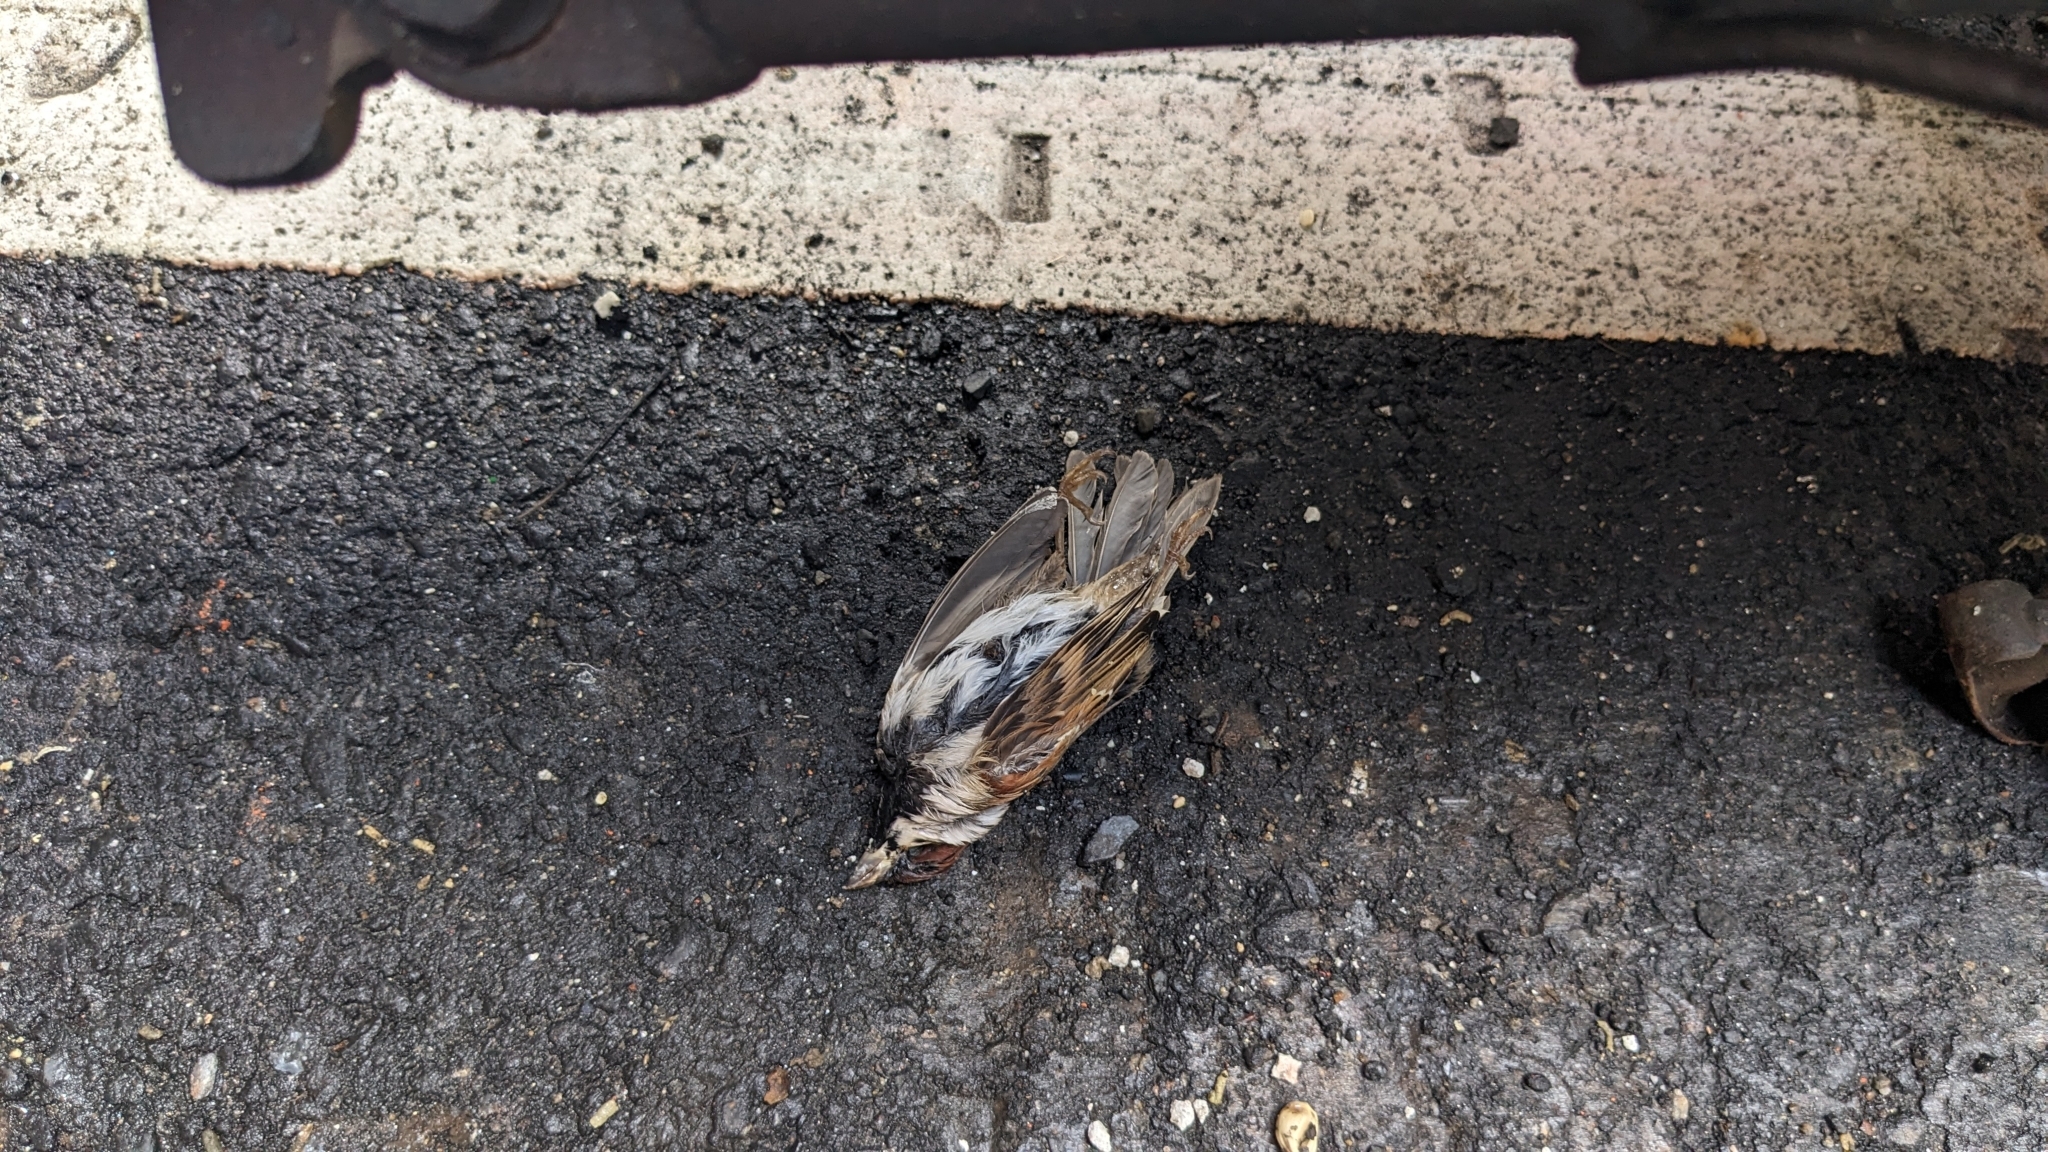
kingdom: Animalia
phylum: Chordata
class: Aves
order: Passeriformes
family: Passeridae
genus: Passer
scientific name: Passer montanus
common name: Eurasian tree sparrow
